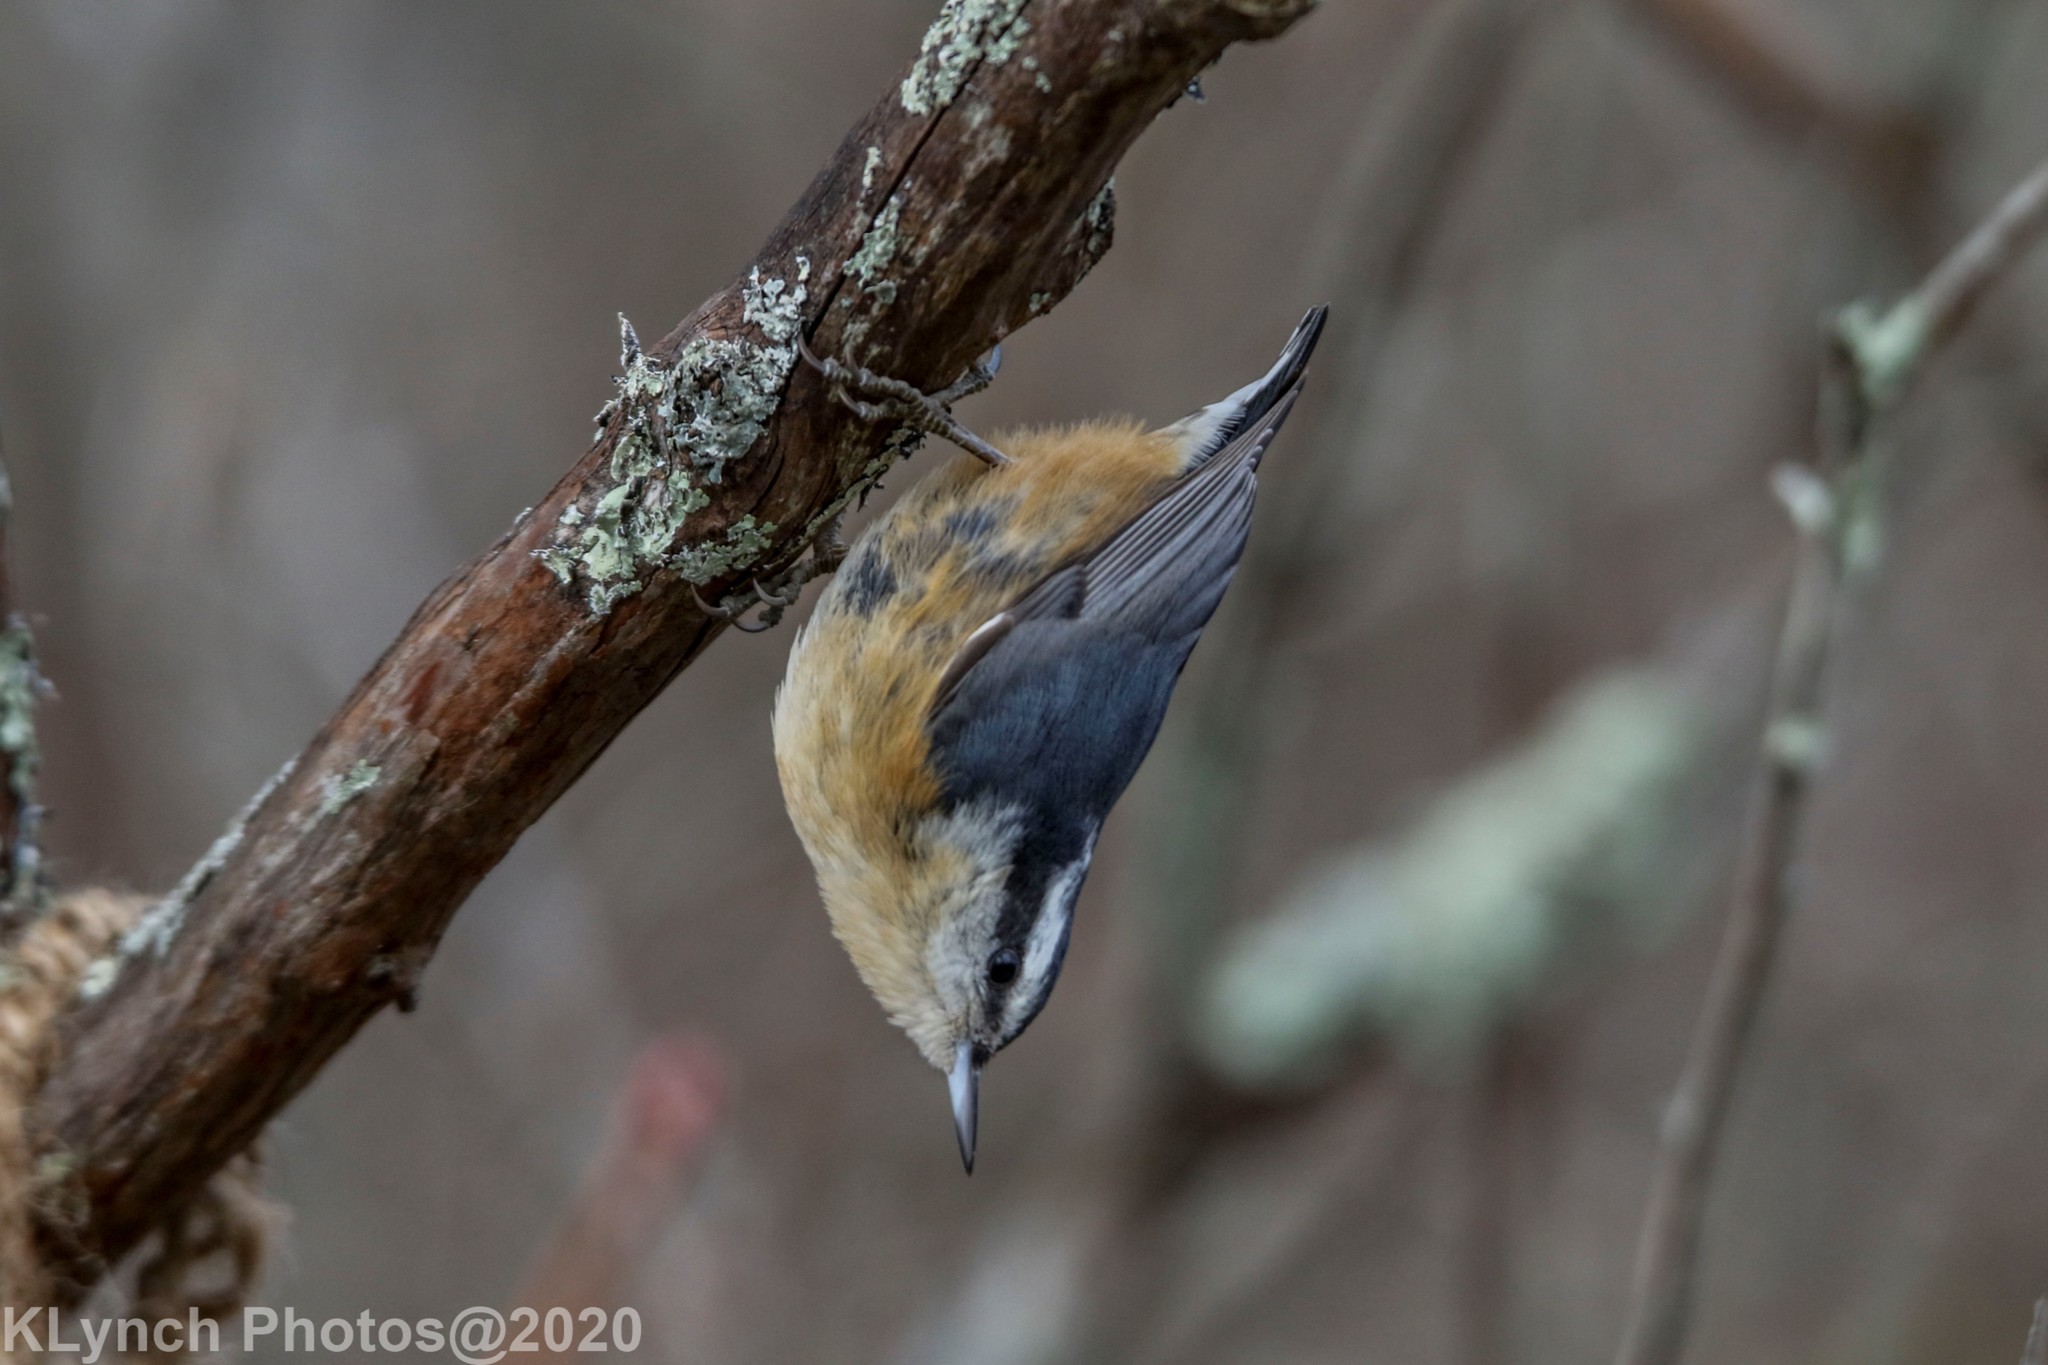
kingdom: Animalia
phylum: Chordata
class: Aves
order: Passeriformes
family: Sittidae
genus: Sitta
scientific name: Sitta canadensis
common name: Red-breasted nuthatch
